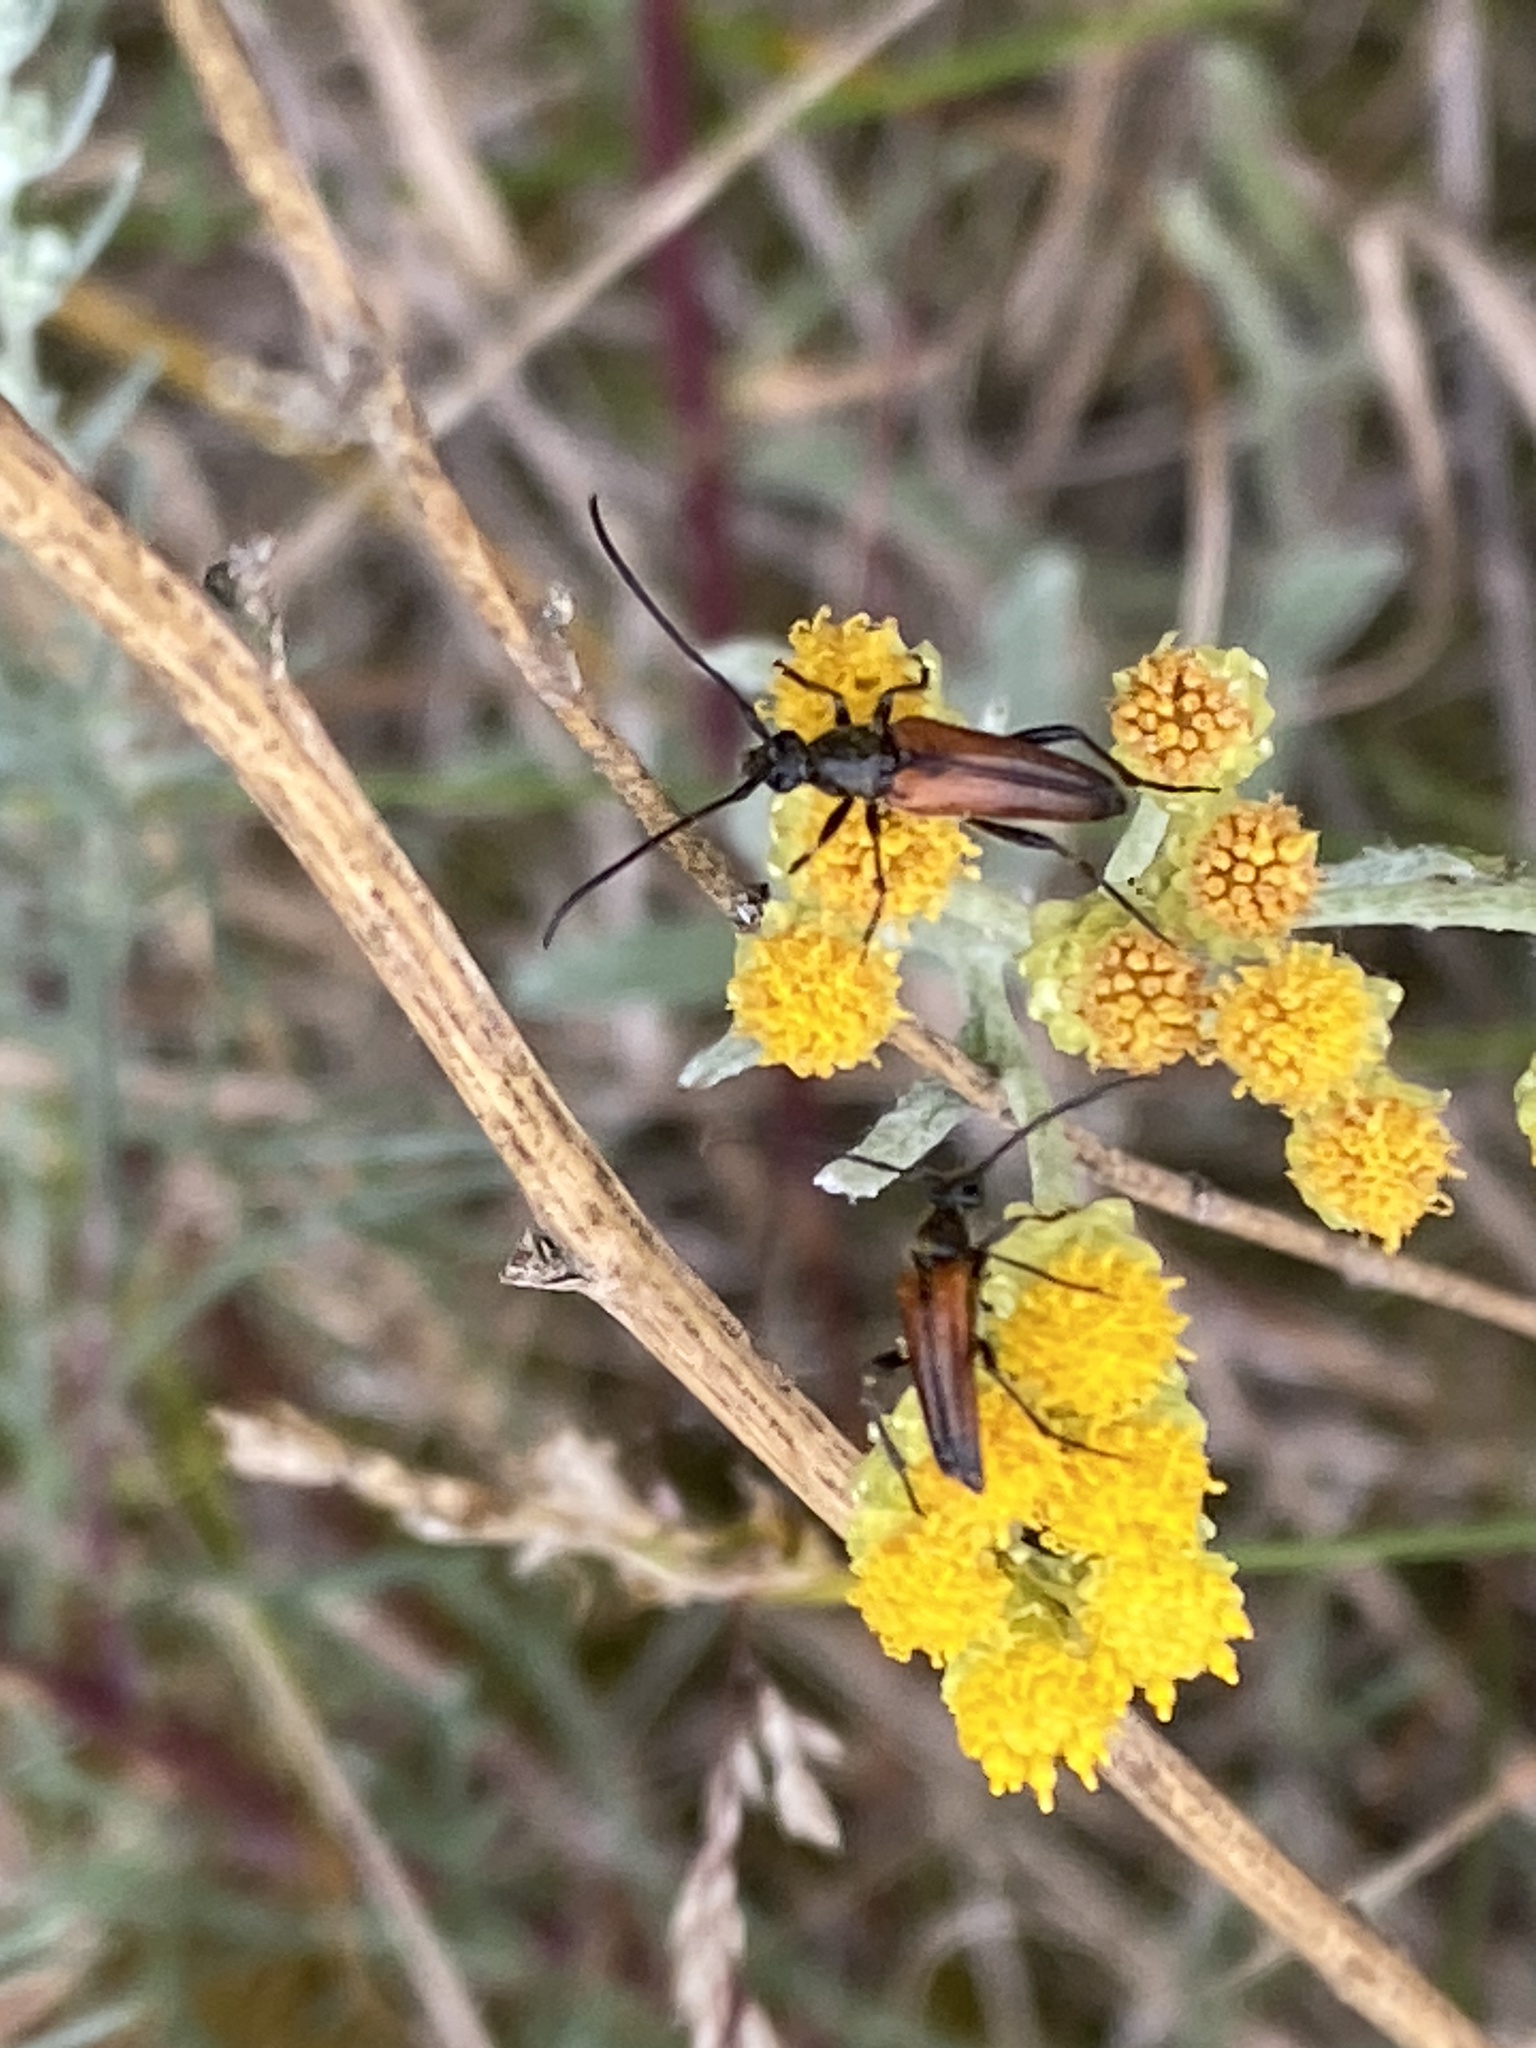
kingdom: Animalia
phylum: Arthropoda
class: Insecta
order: Coleoptera
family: Cerambycidae
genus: Stenurella
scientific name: Stenurella bifasciata
